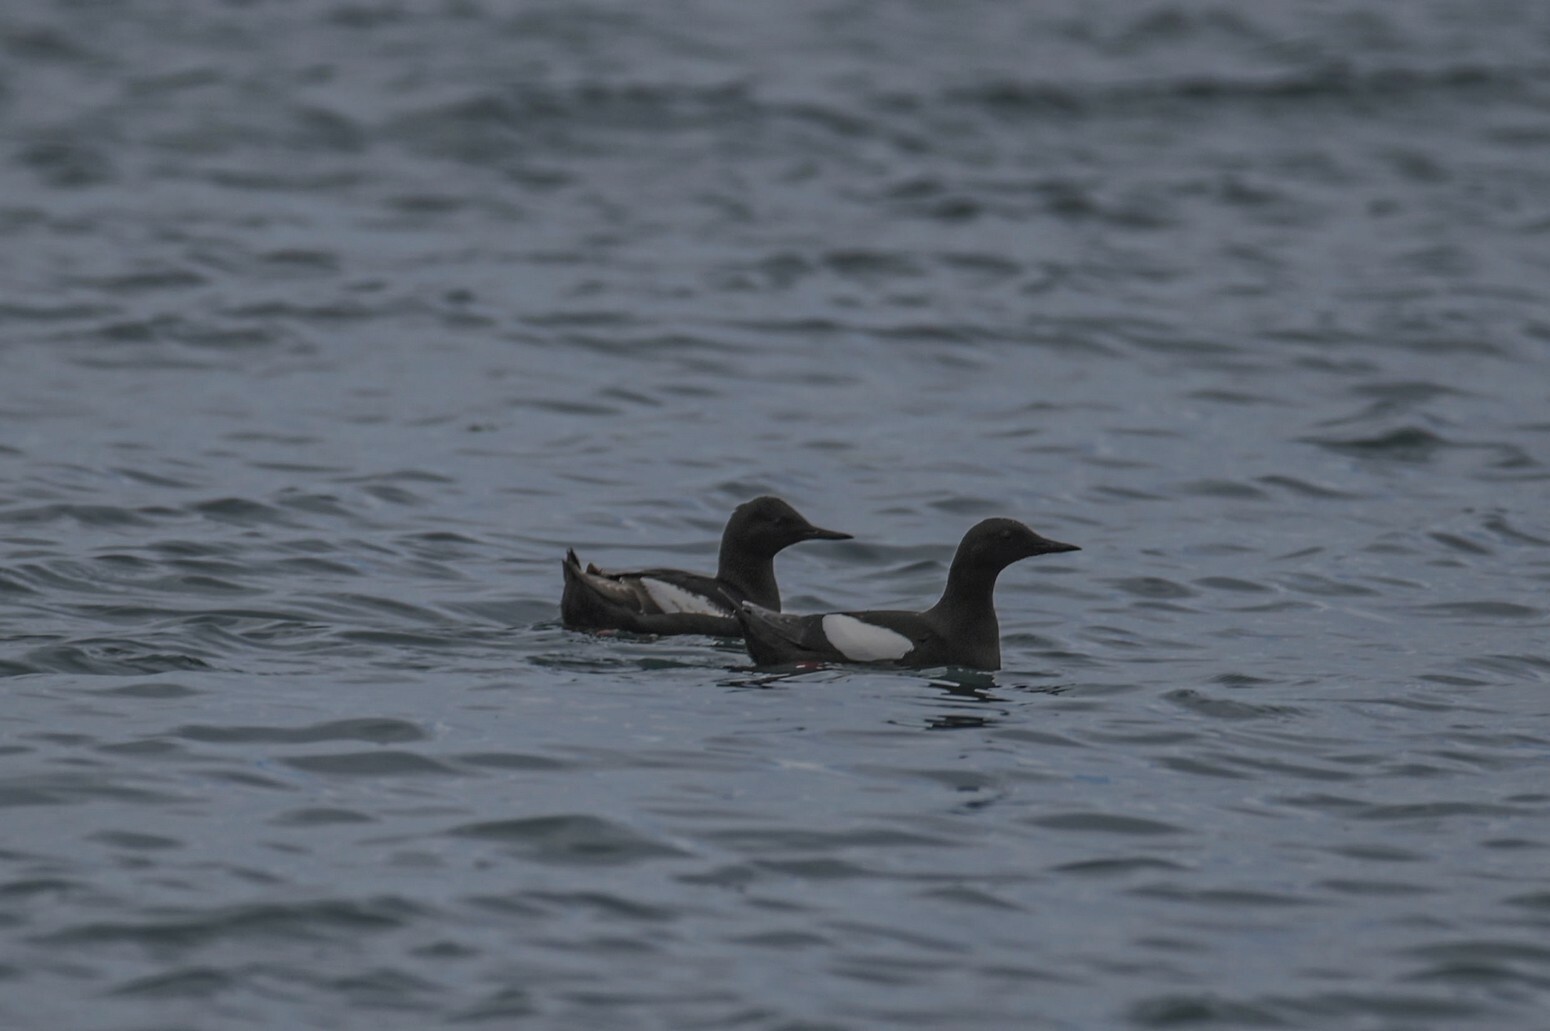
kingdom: Animalia
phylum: Chordata
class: Aves
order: Charadriiformes
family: Alcidae
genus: Cepphus
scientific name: Cepphus grylle
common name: Black guillemot
